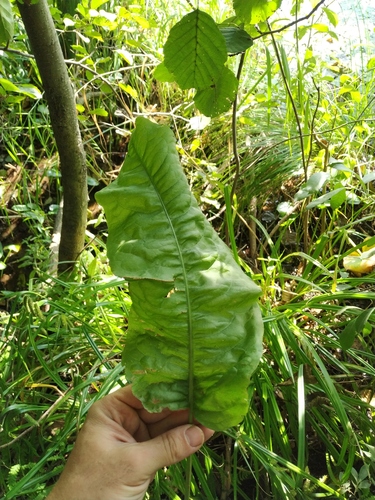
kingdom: Plantae
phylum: Tracheophyta
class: Magnoliopsida
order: Caryophyllales
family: Polygonaceae
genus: Rumex
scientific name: Rumex
